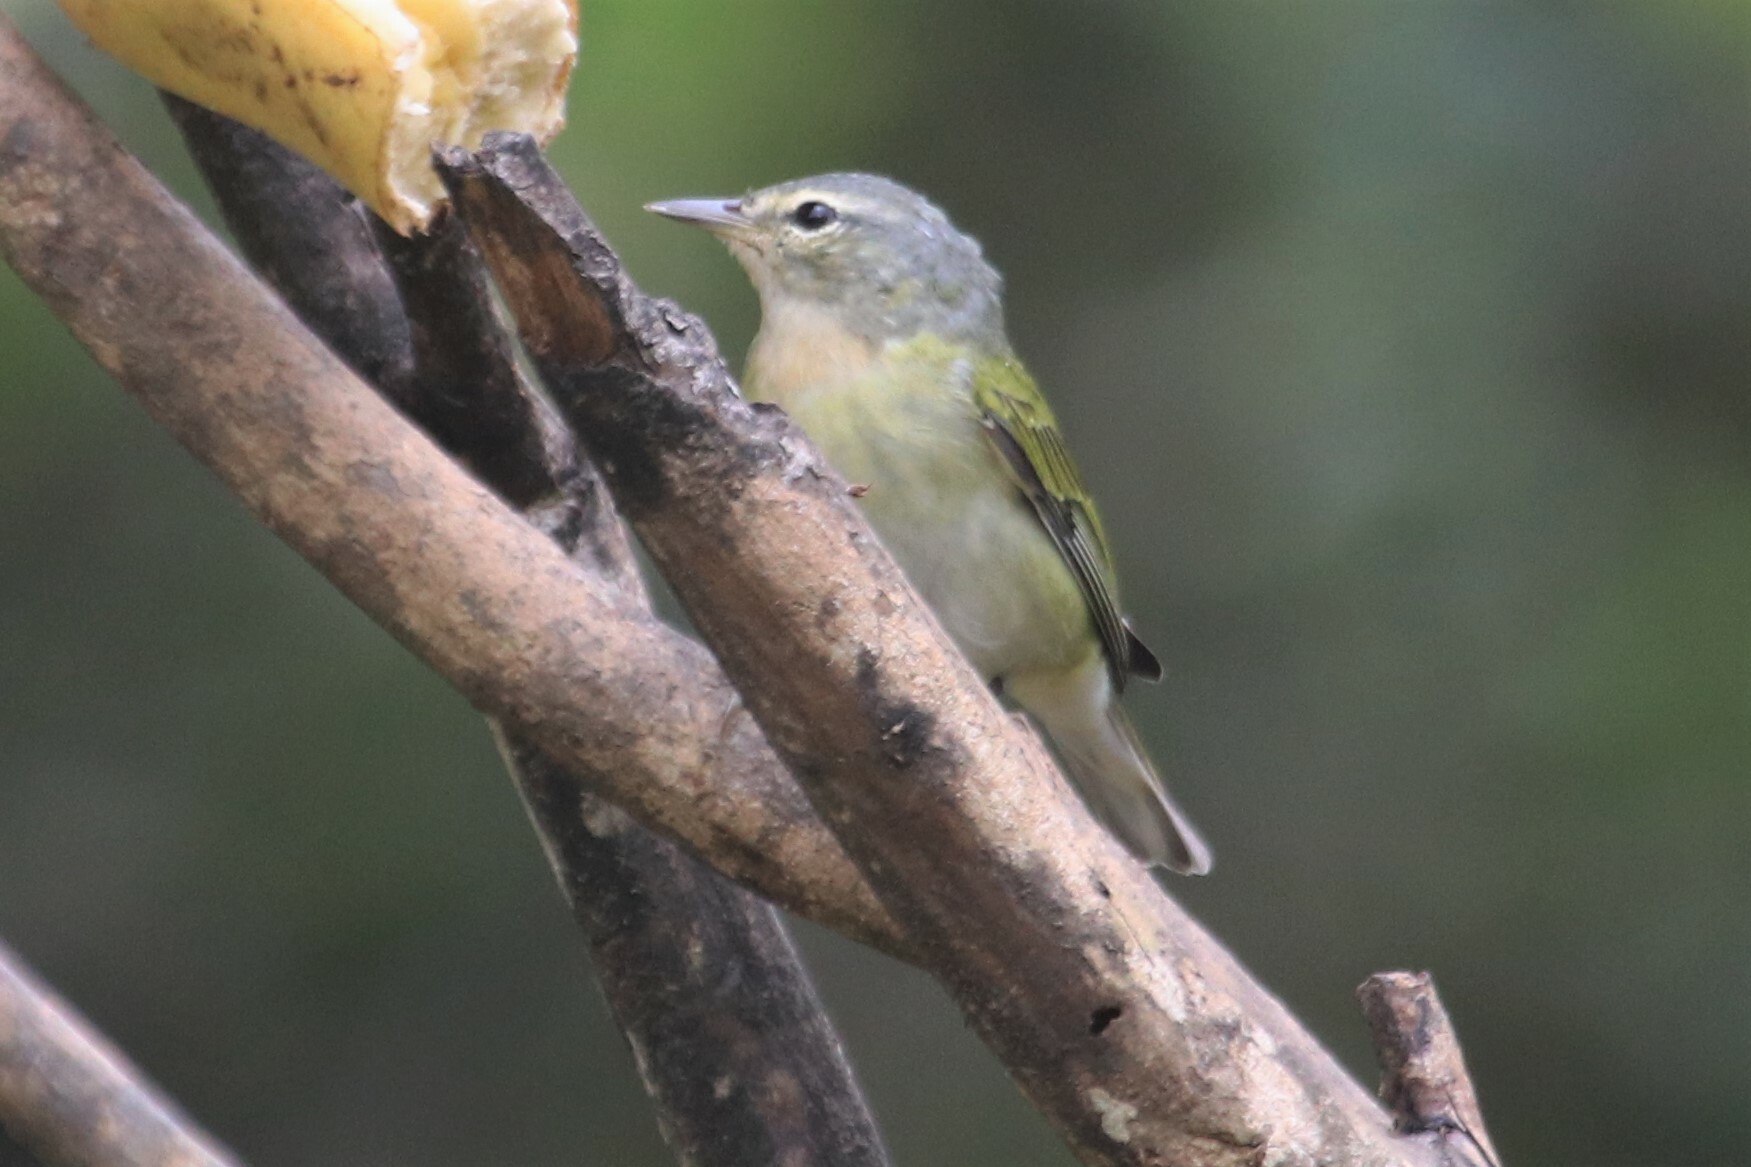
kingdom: Animalia
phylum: Chordata
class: Aves
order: Passeriformes
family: Parulidae
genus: Leiothlypis
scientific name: Leiothlypis peregrina
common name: Tennessee warbler
